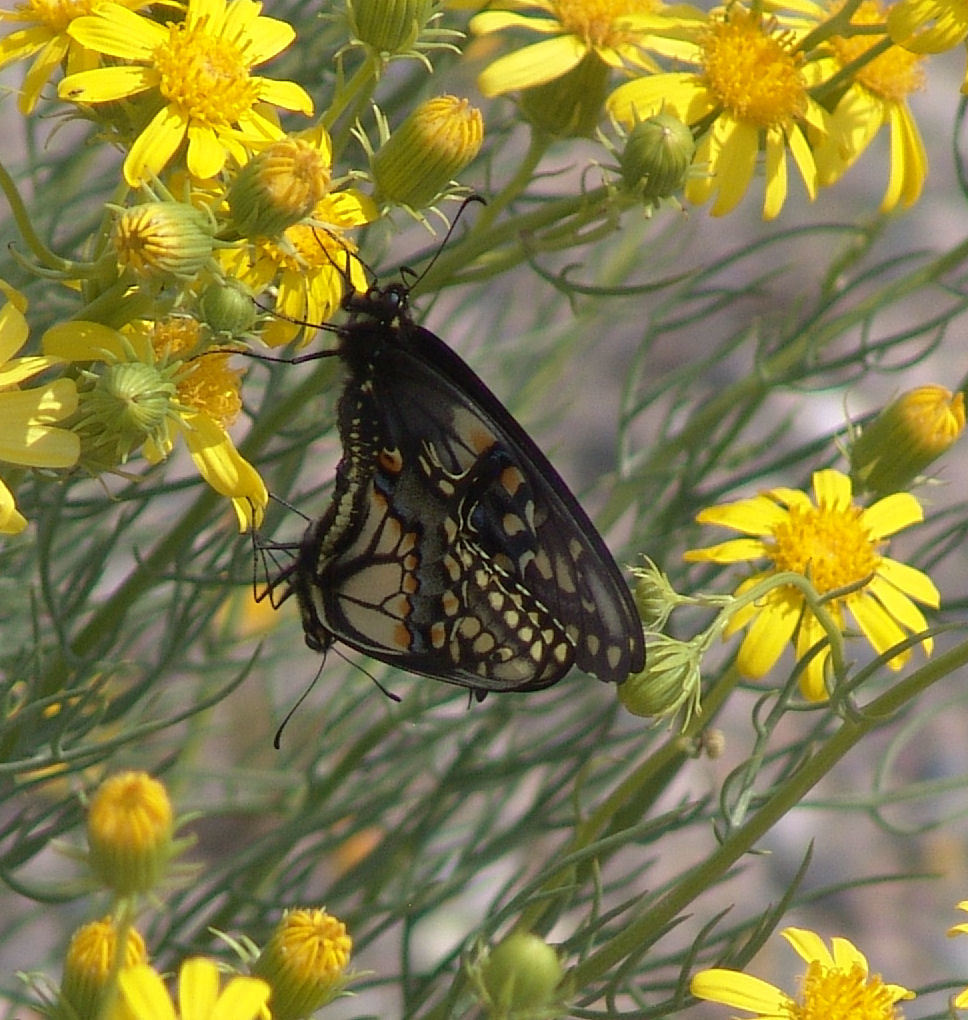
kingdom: Animalia
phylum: Arthropoda
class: Insecta
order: Lepidoptera
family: Papilionidae
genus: Papilio
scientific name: Papilio polyxenes
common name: Black swallowtail
